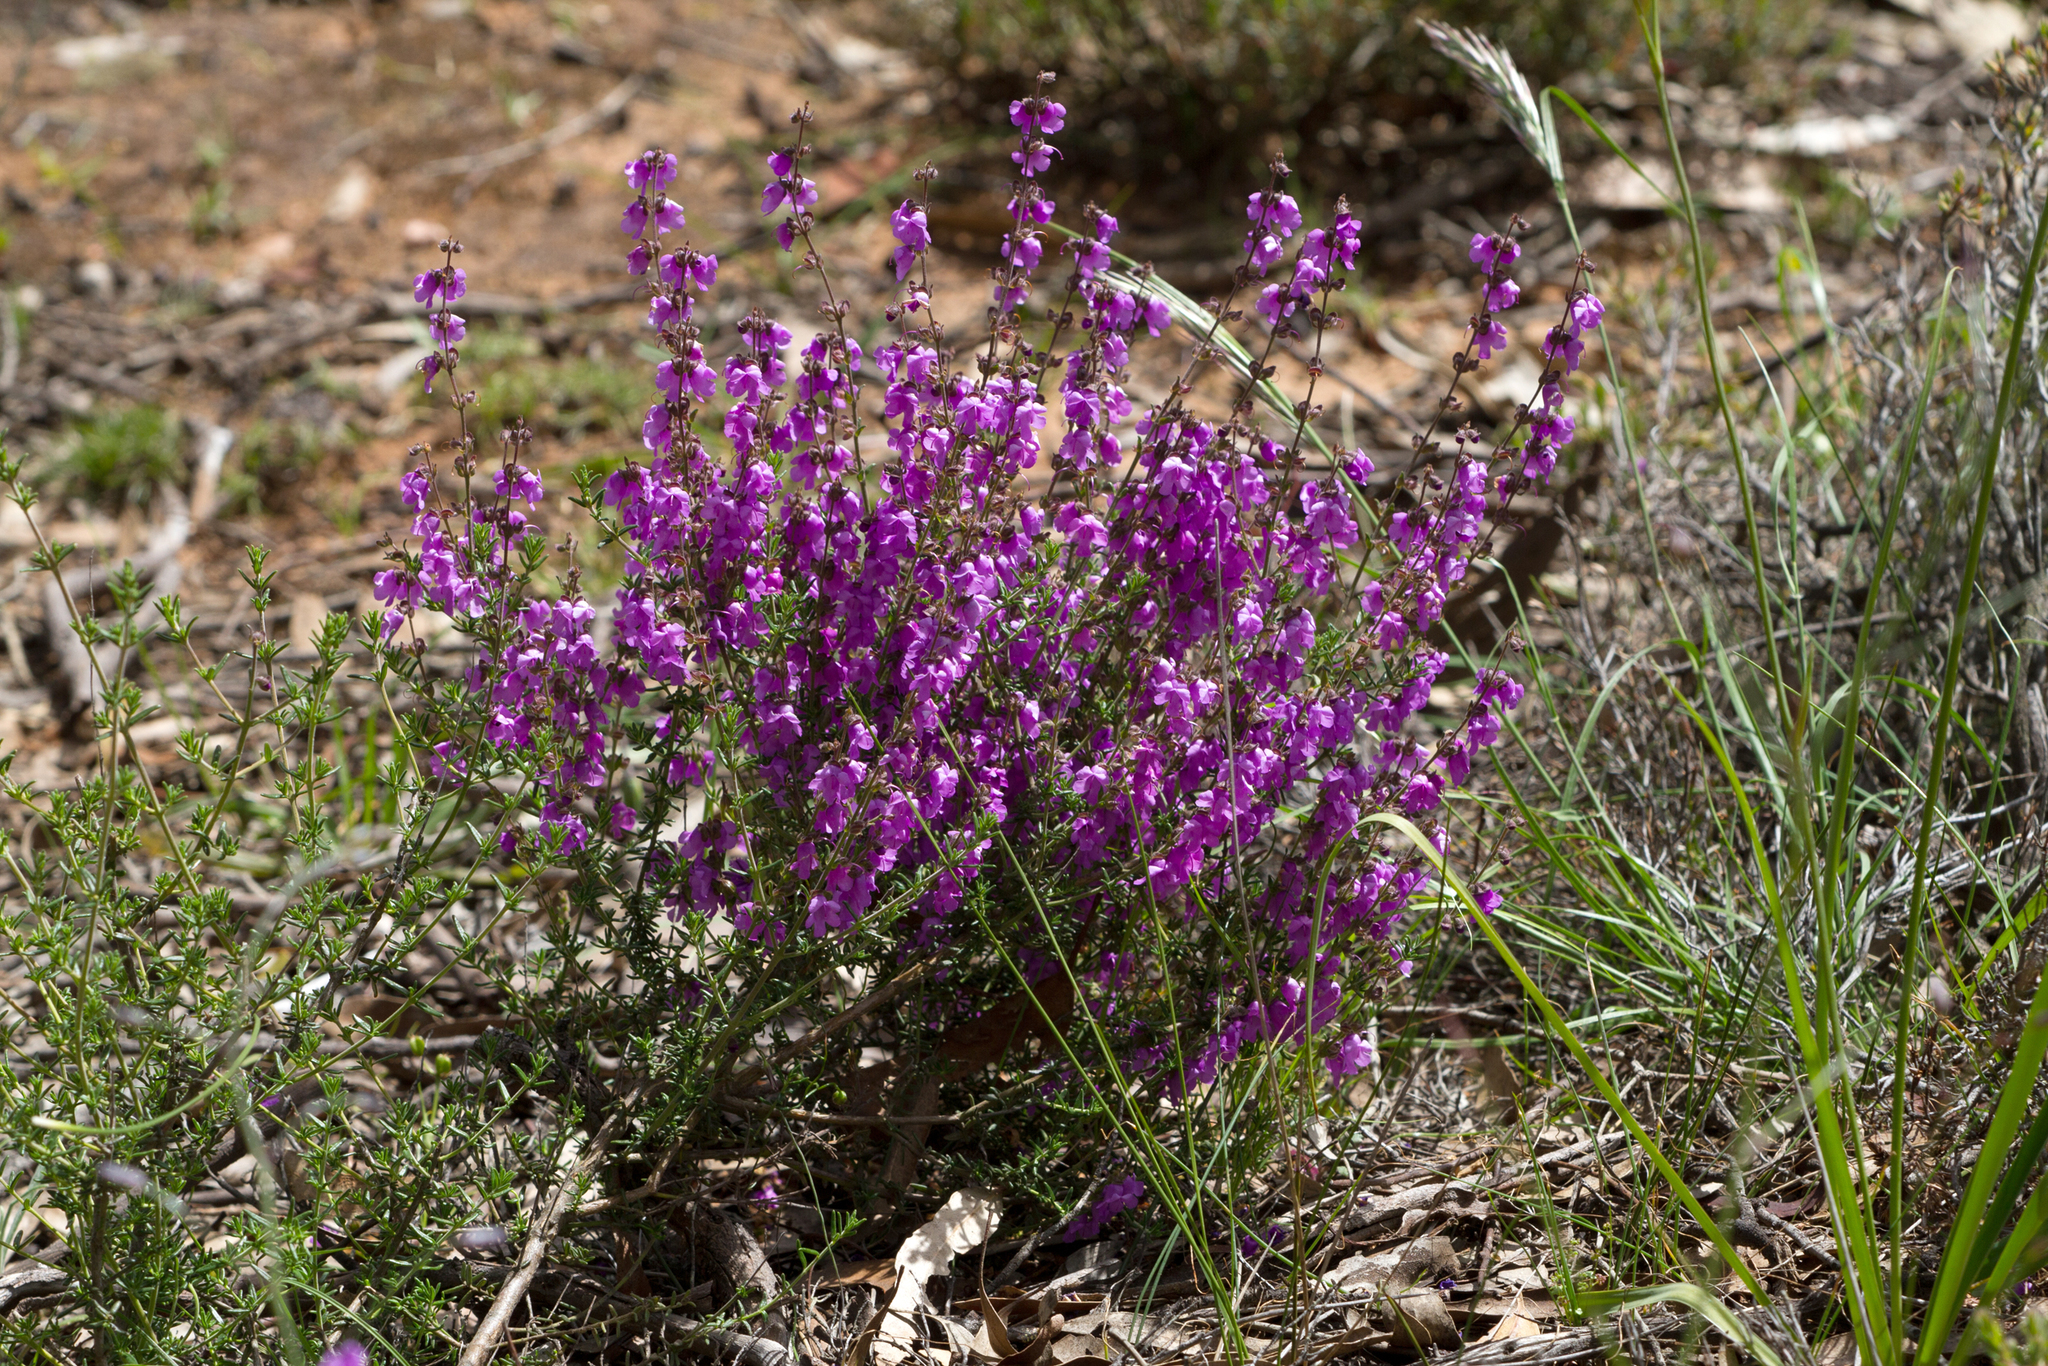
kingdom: Plantae
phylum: Tracheophyta
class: Magnoliopsida
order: Lamiales
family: Lamiaceae
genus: Prostanthera
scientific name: Prostanthera denticulata
